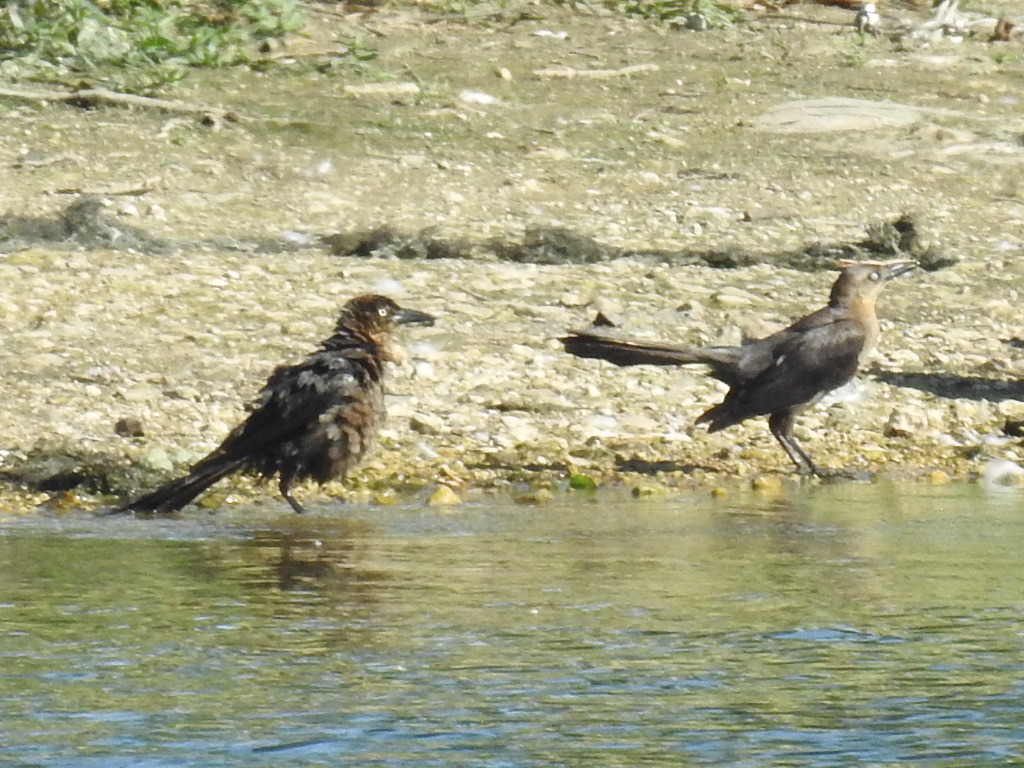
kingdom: Animalia
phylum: Chordata
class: Aves
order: Passeriformes
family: Icteridae
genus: Quiscalus
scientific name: Quiscalus mexicanus
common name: Great-tailed grackle
